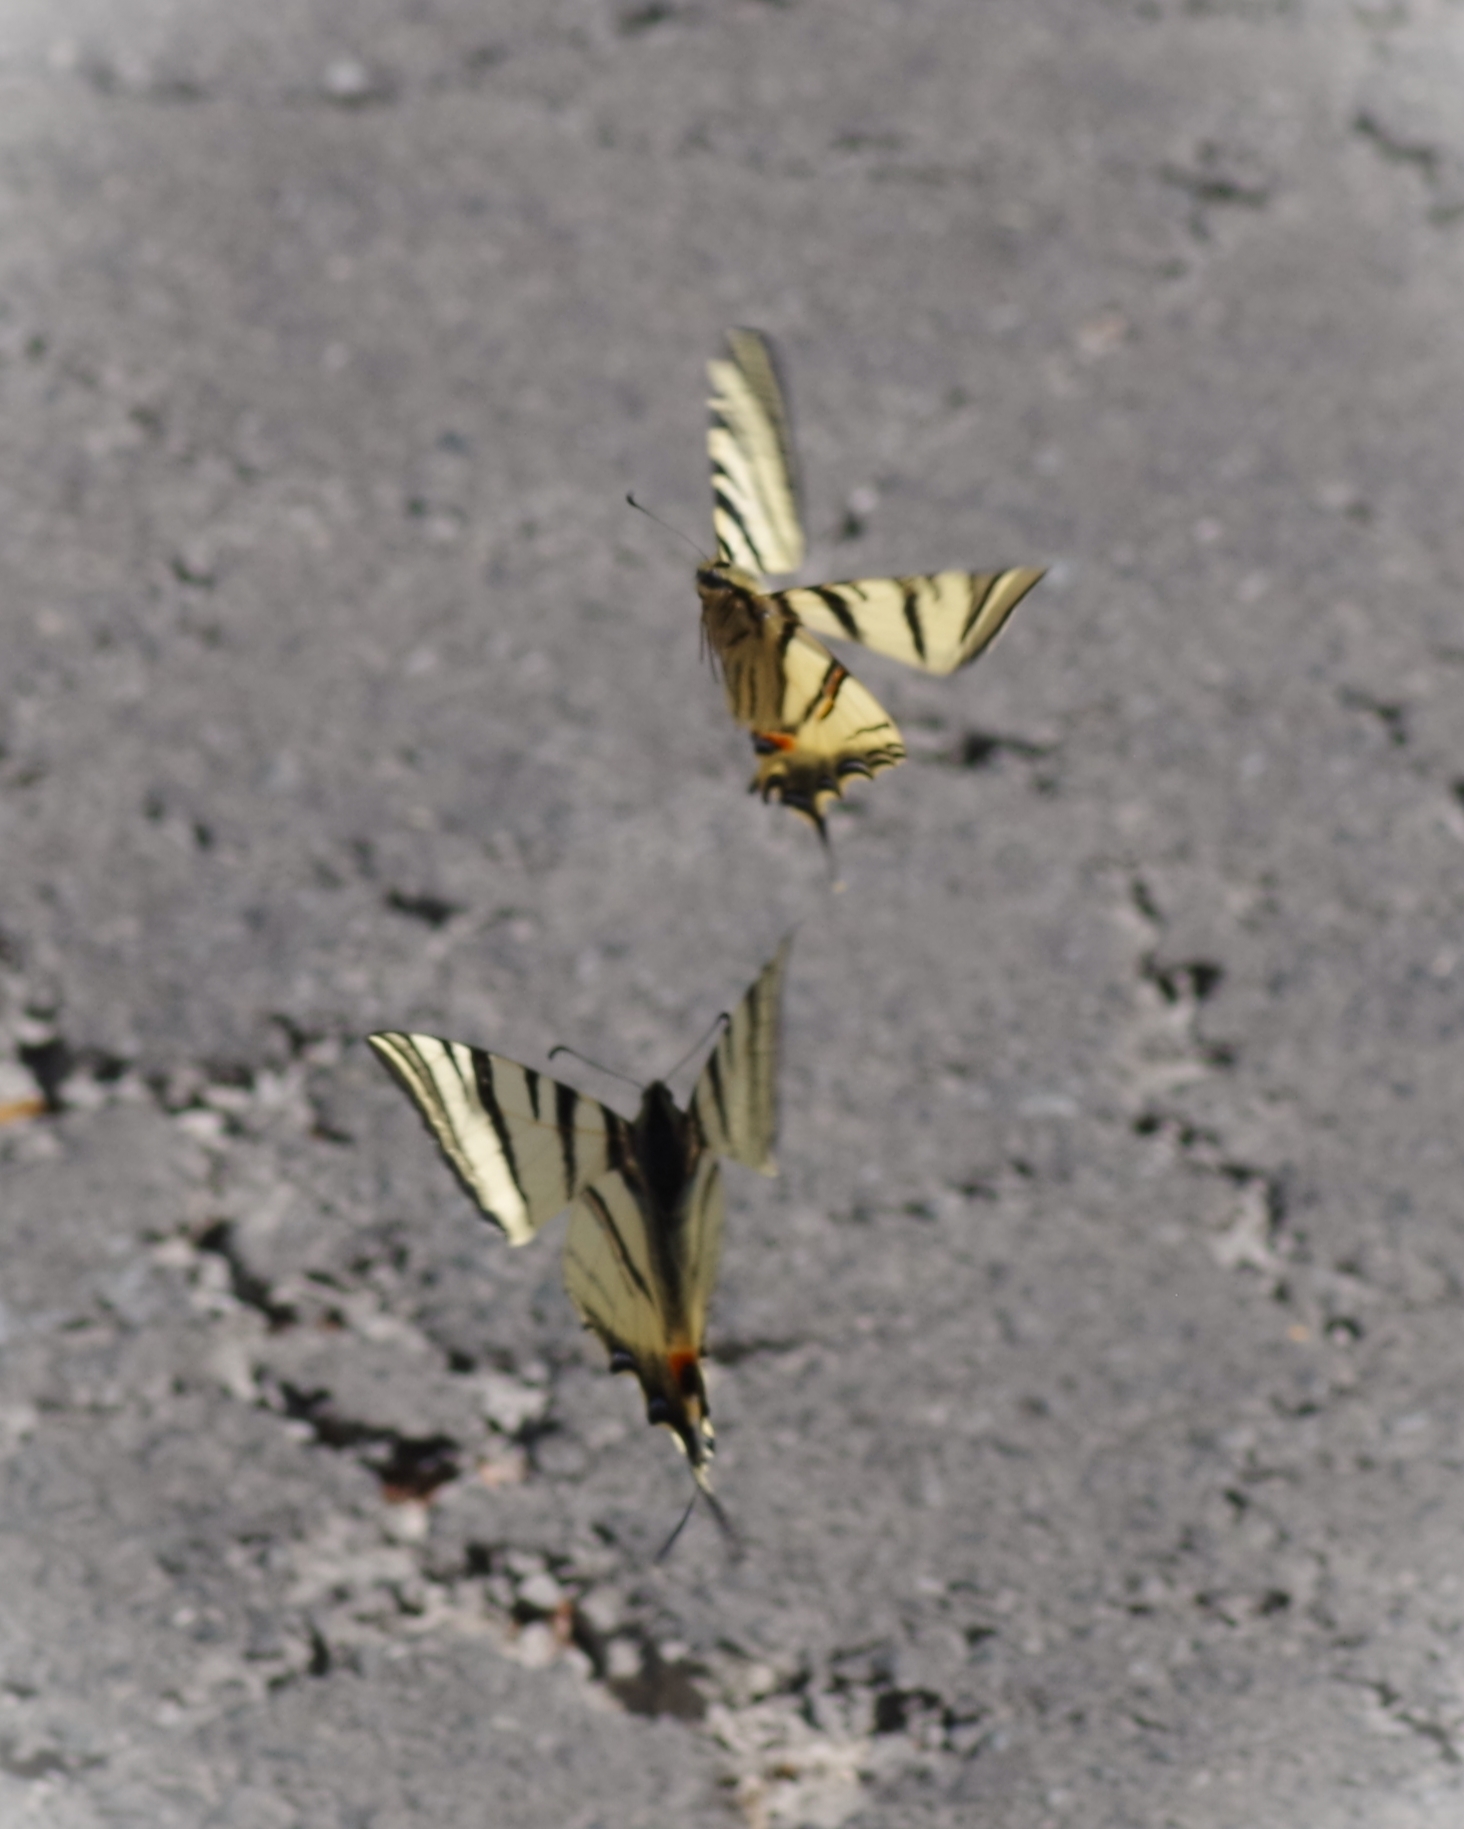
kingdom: Animalia
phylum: Arthropoda
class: Insecta
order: Lepidoptera
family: Papilionidae
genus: Iphiclides
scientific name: Iphiclides podalirius
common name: Scarce swallowtail
